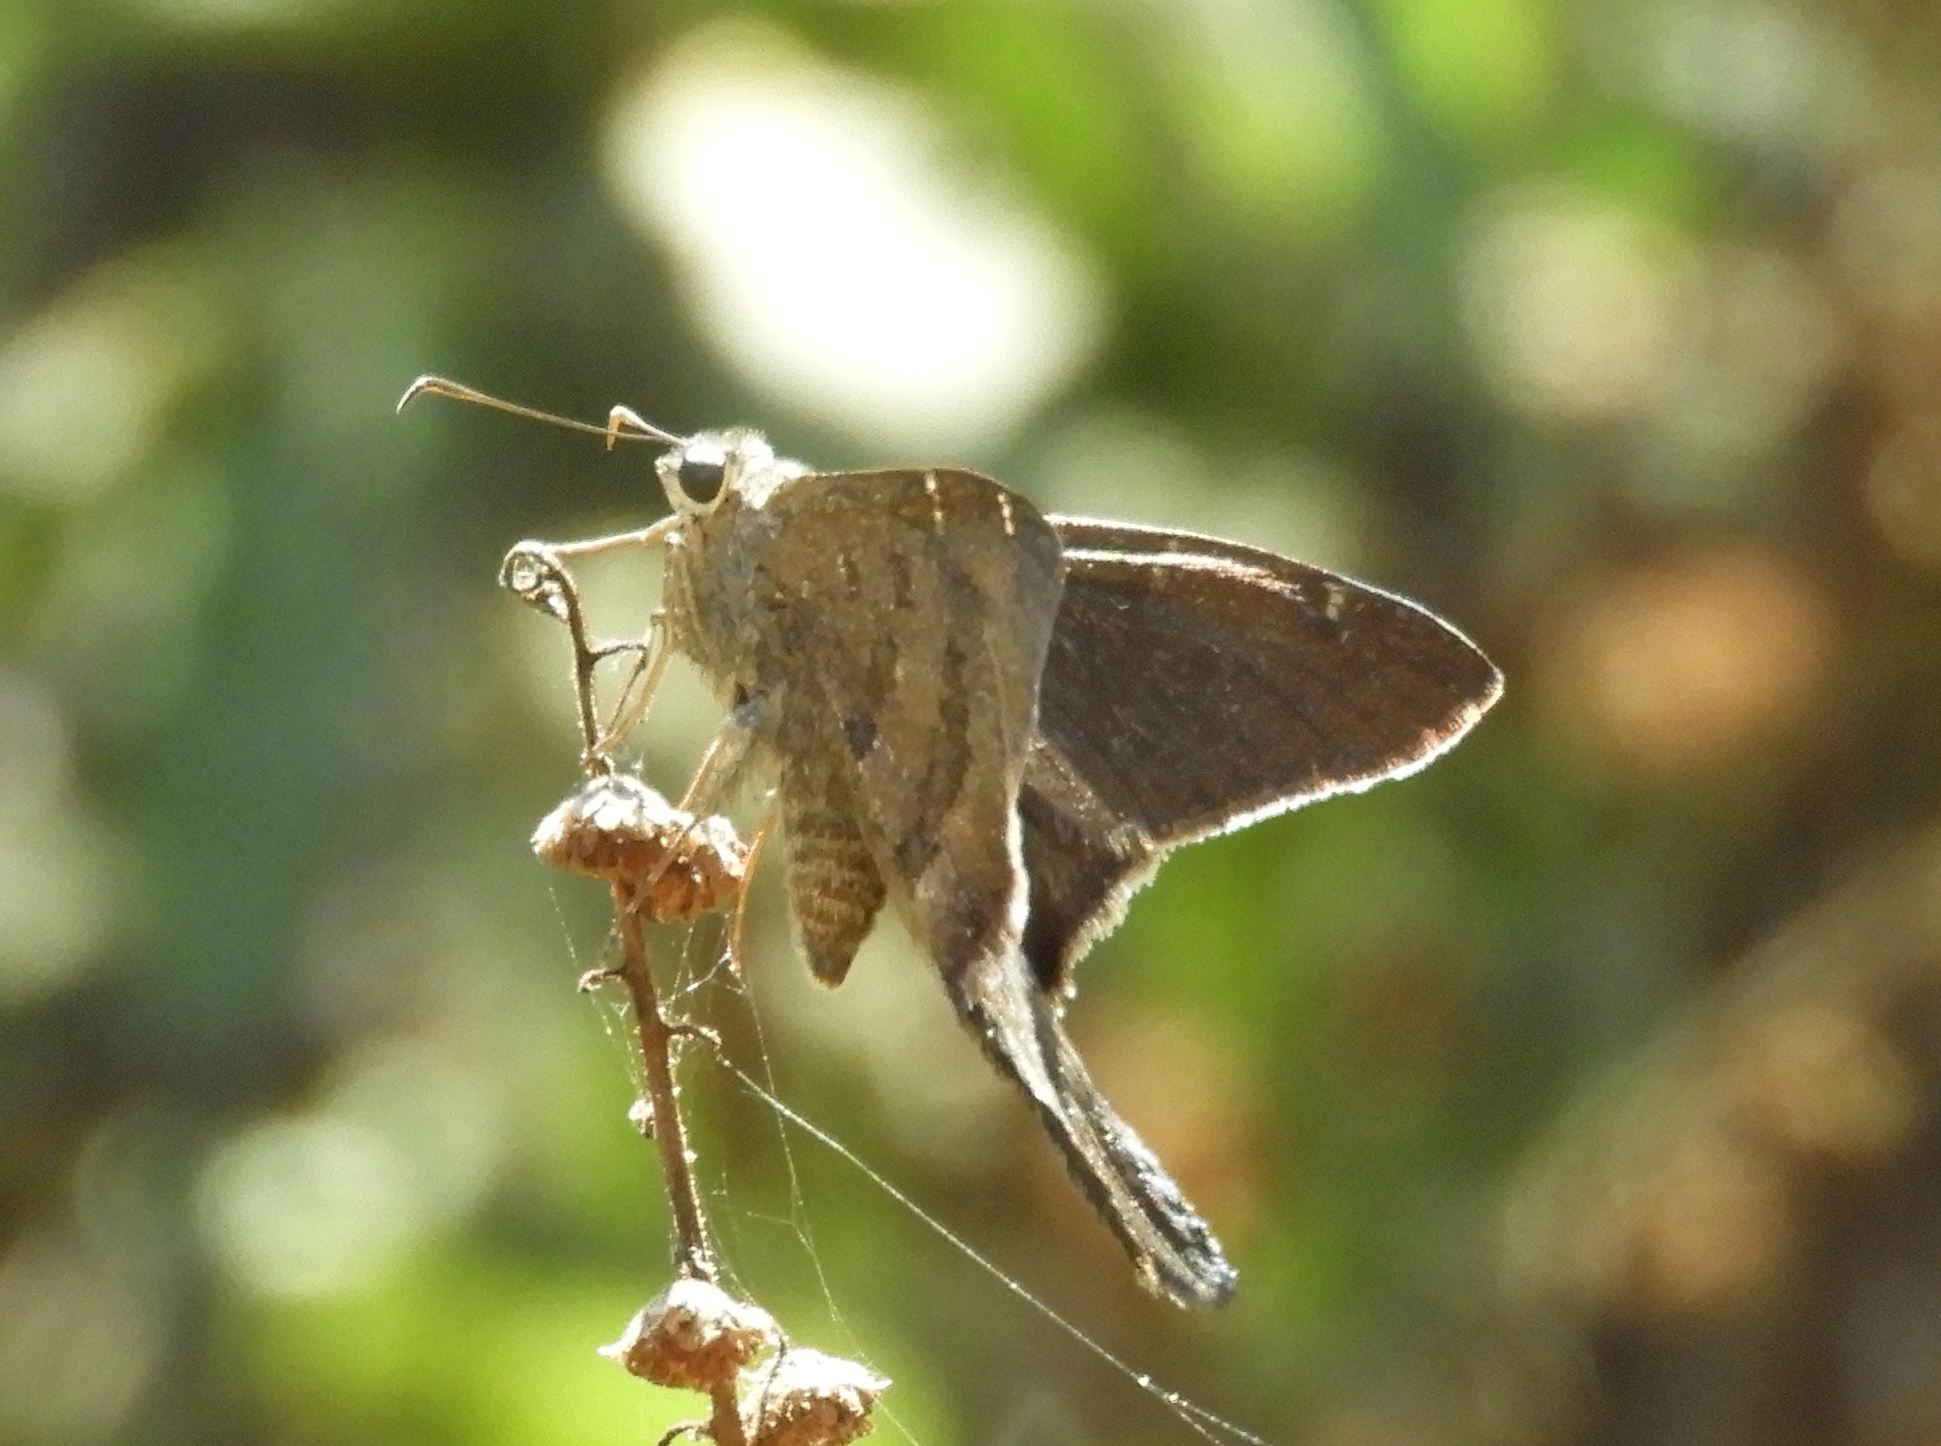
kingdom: Animalia
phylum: Arthropoda
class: Insecta
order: Lepidoptera
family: Hesperiidae
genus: Urbanus
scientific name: Urbanus procne
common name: Brown longtail
